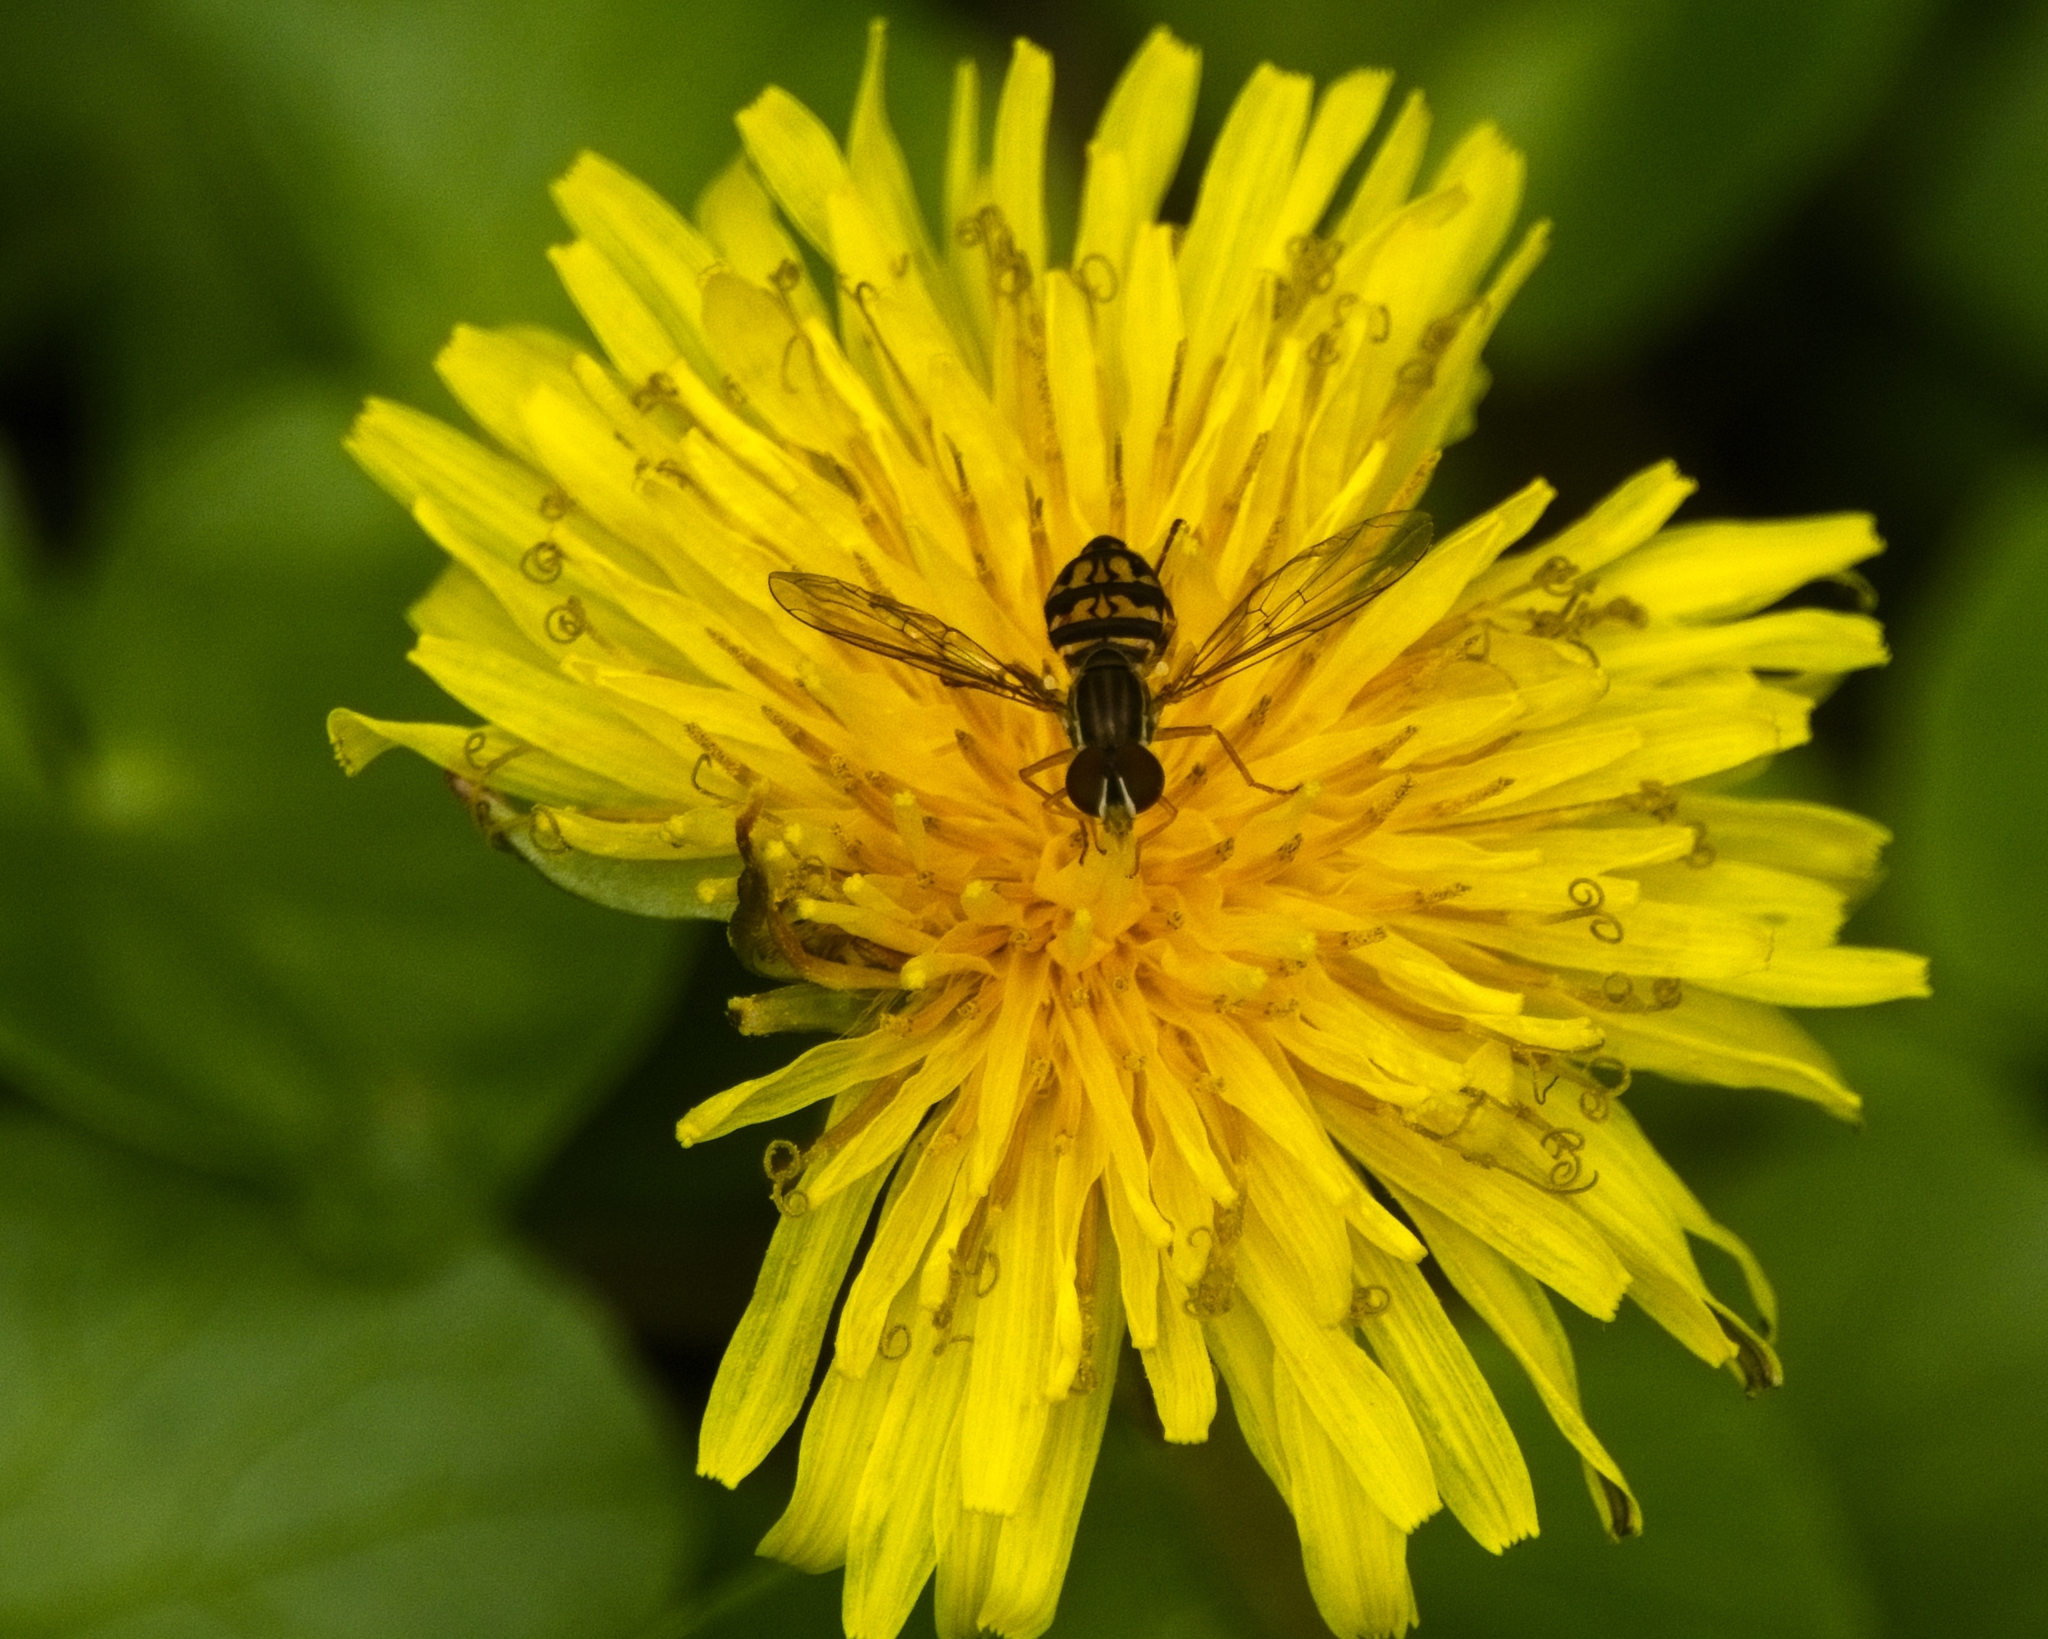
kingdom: Animalia
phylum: Arthropoda
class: Insecta
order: Diptera
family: Syrphidae
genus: Toxomerus
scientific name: Toxomerus geminatus
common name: Eastern calligrapher
